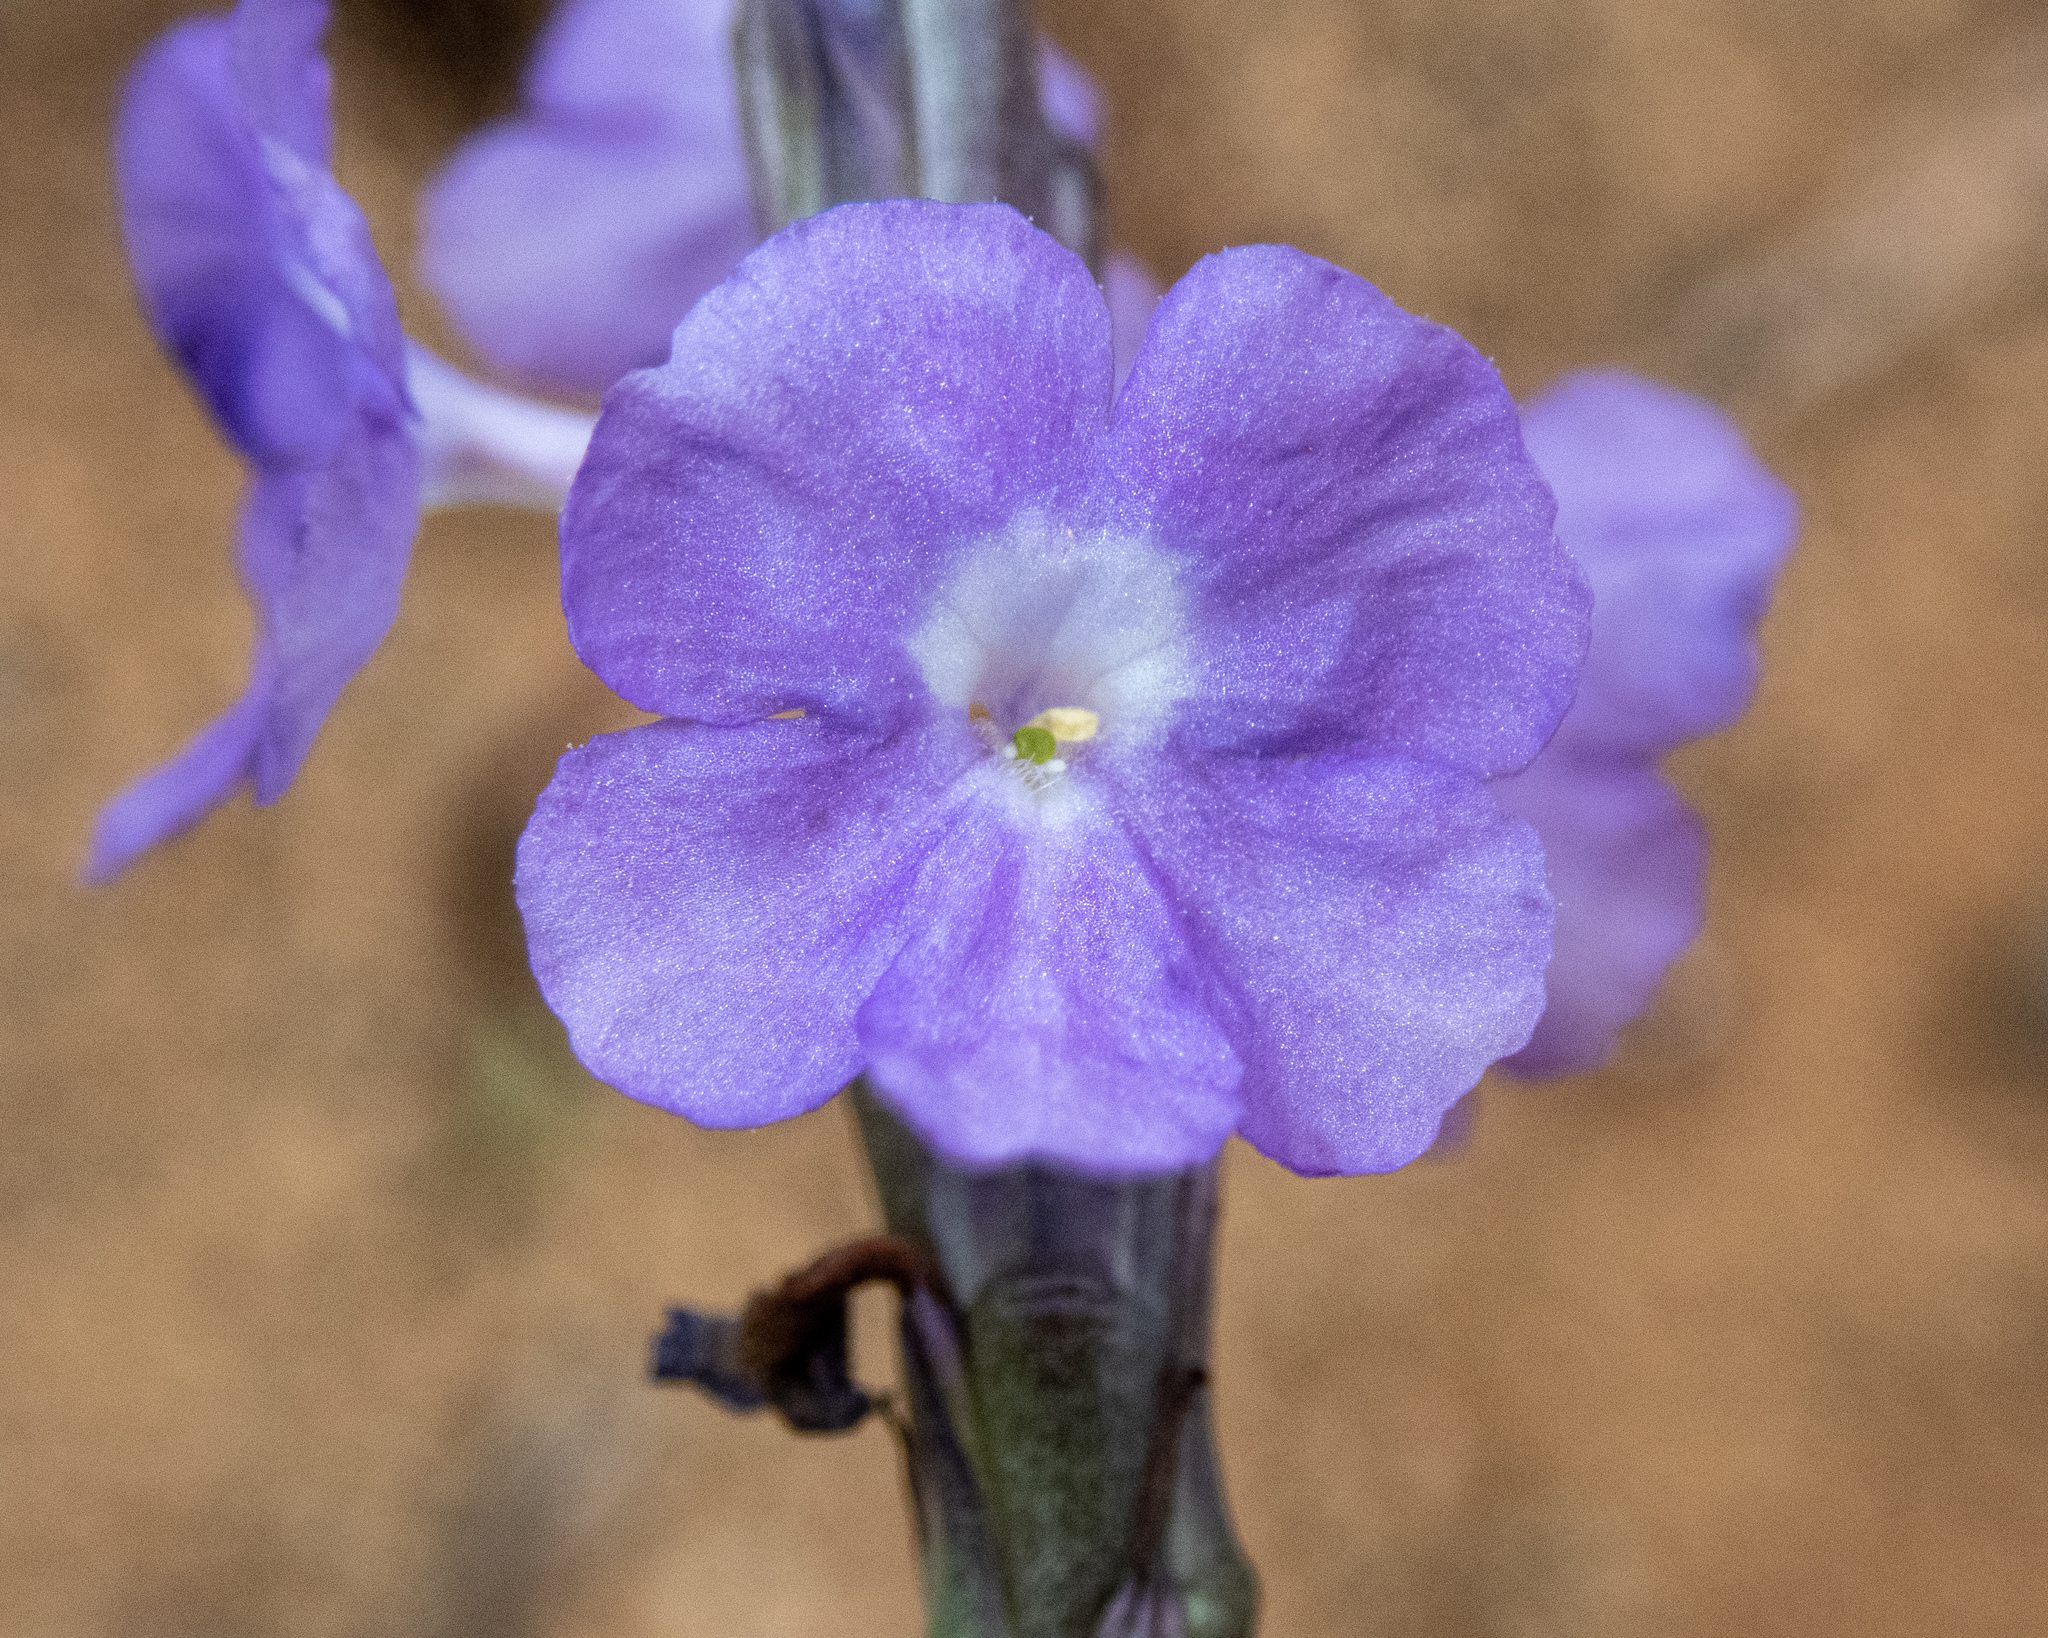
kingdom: Plantae
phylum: Tracheophyta
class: Magnoliopsida
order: Lamiales
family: Verbenaceae
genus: Stachytarpheta
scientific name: Stachytarpheta jamaicensis
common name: Light-blue snakeweed
